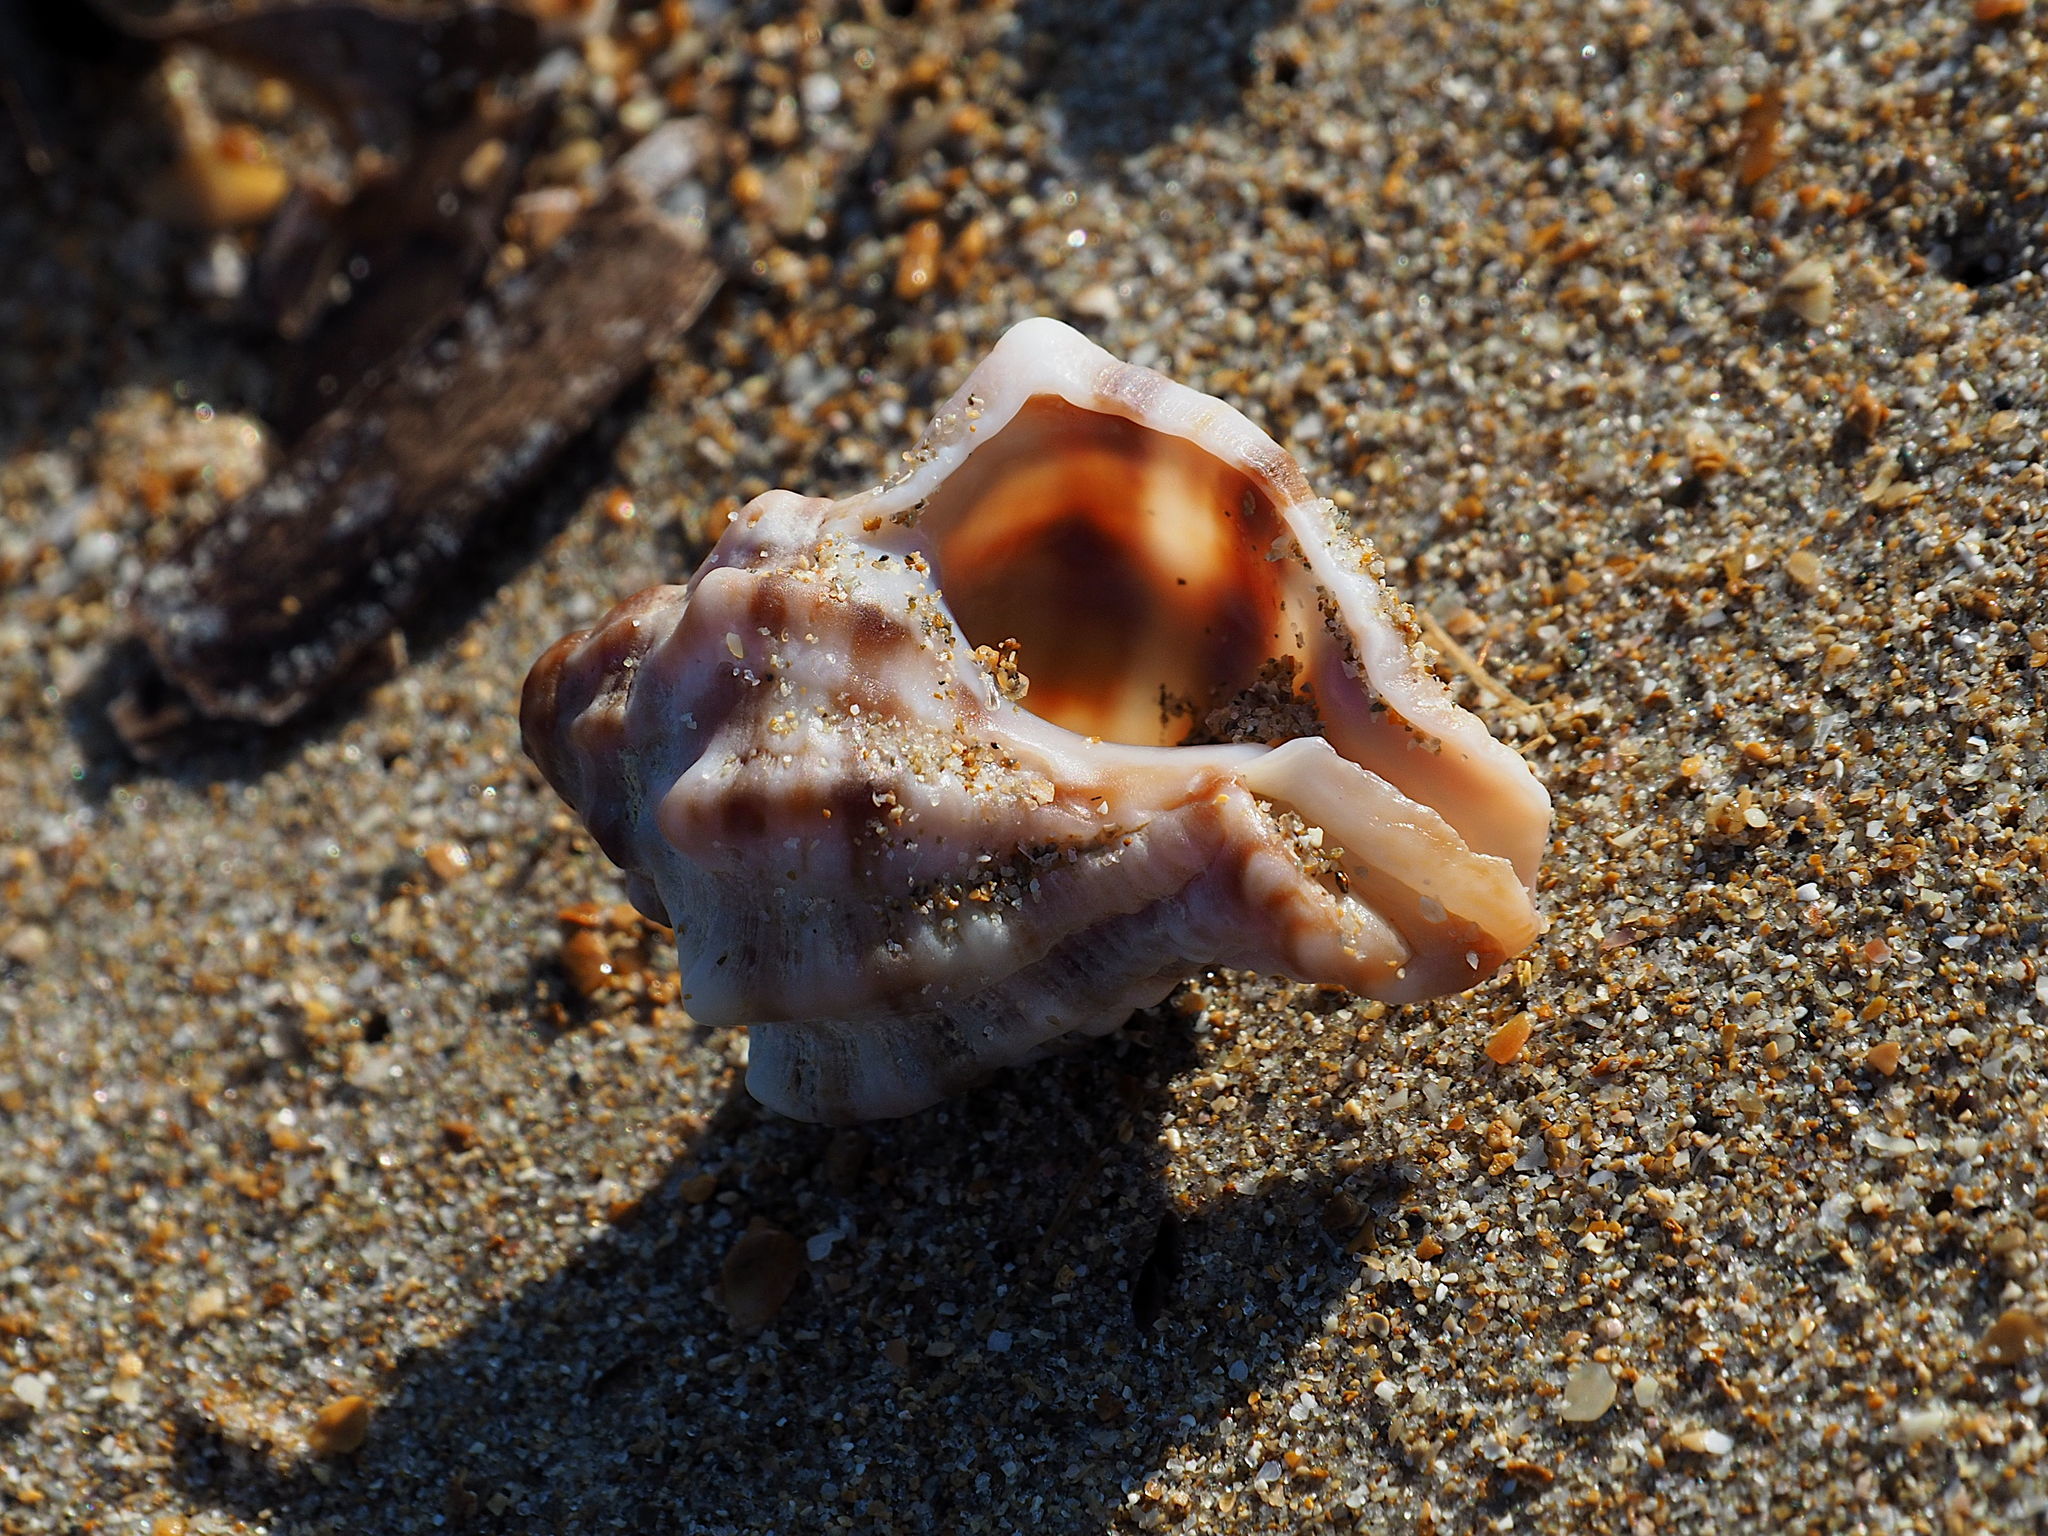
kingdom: Animalia
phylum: Mollusca
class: Gastropoda
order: Neogastropoda
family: Muricidae
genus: Hexaplex
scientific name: Hexaplex trunculus
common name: Banded dye-murex
